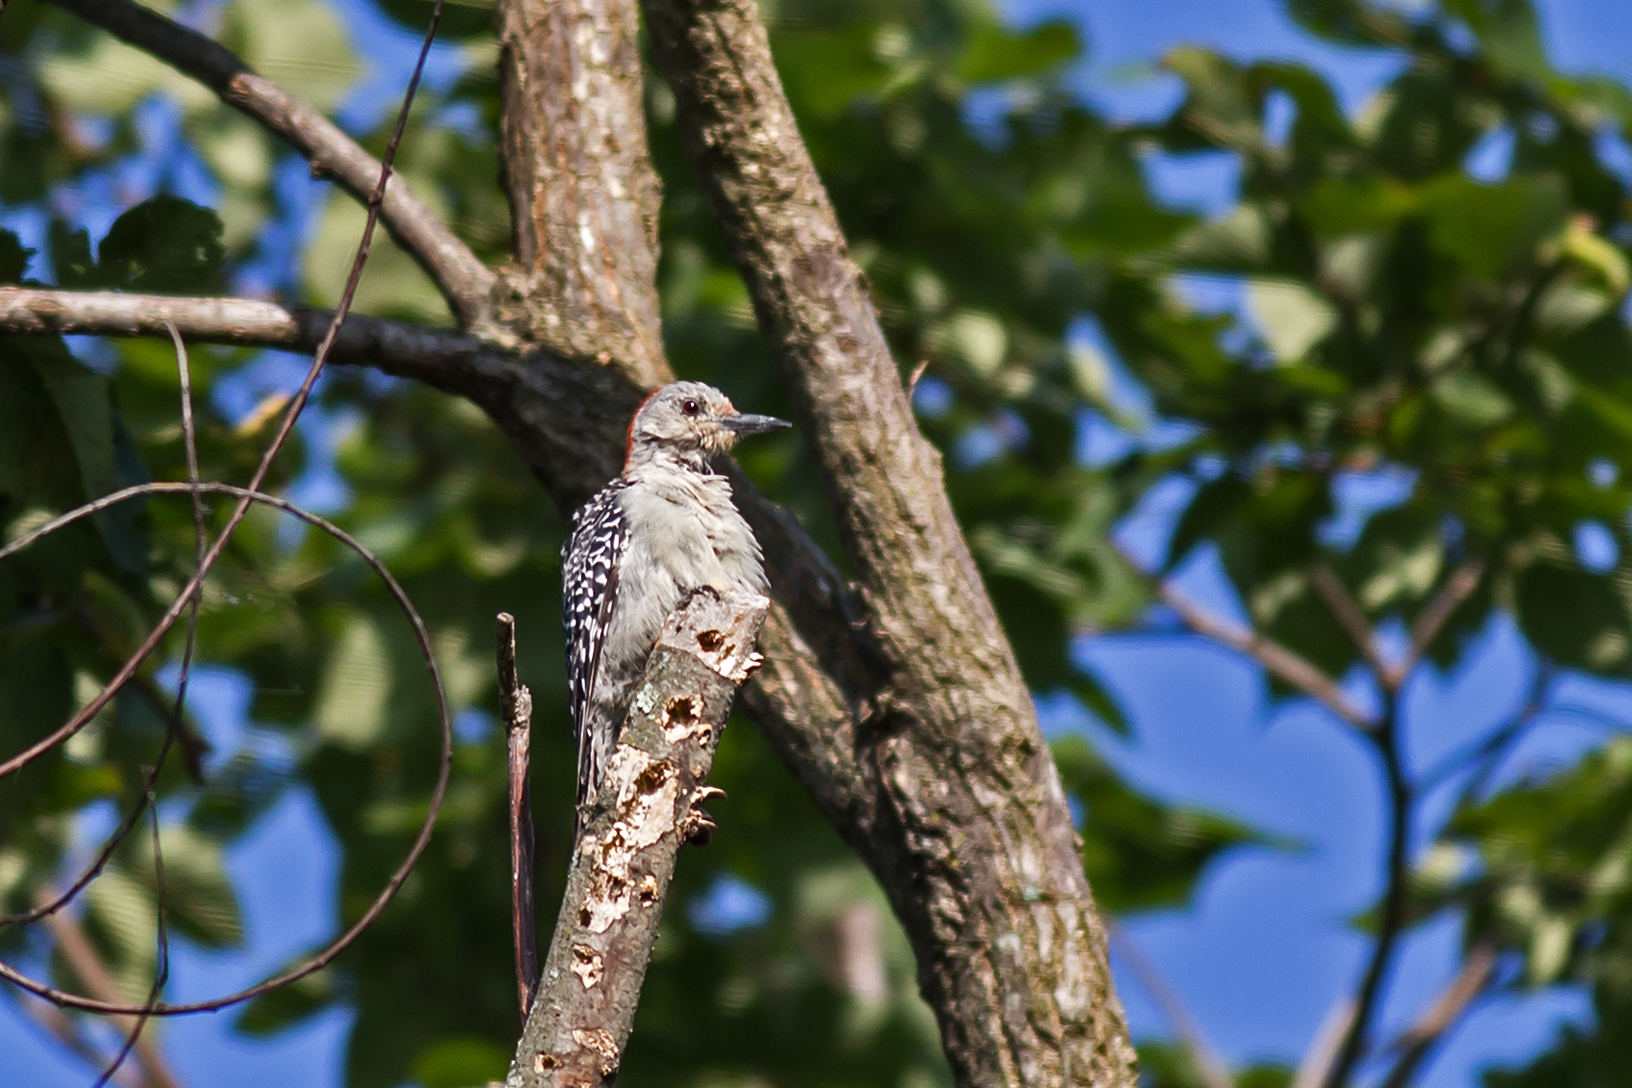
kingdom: Animalia
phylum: Chordata
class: Aves
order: Piciformes
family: Picidae
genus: Melanerpes
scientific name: Melanerpes carolinus
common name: Red-bellied woodpecker
